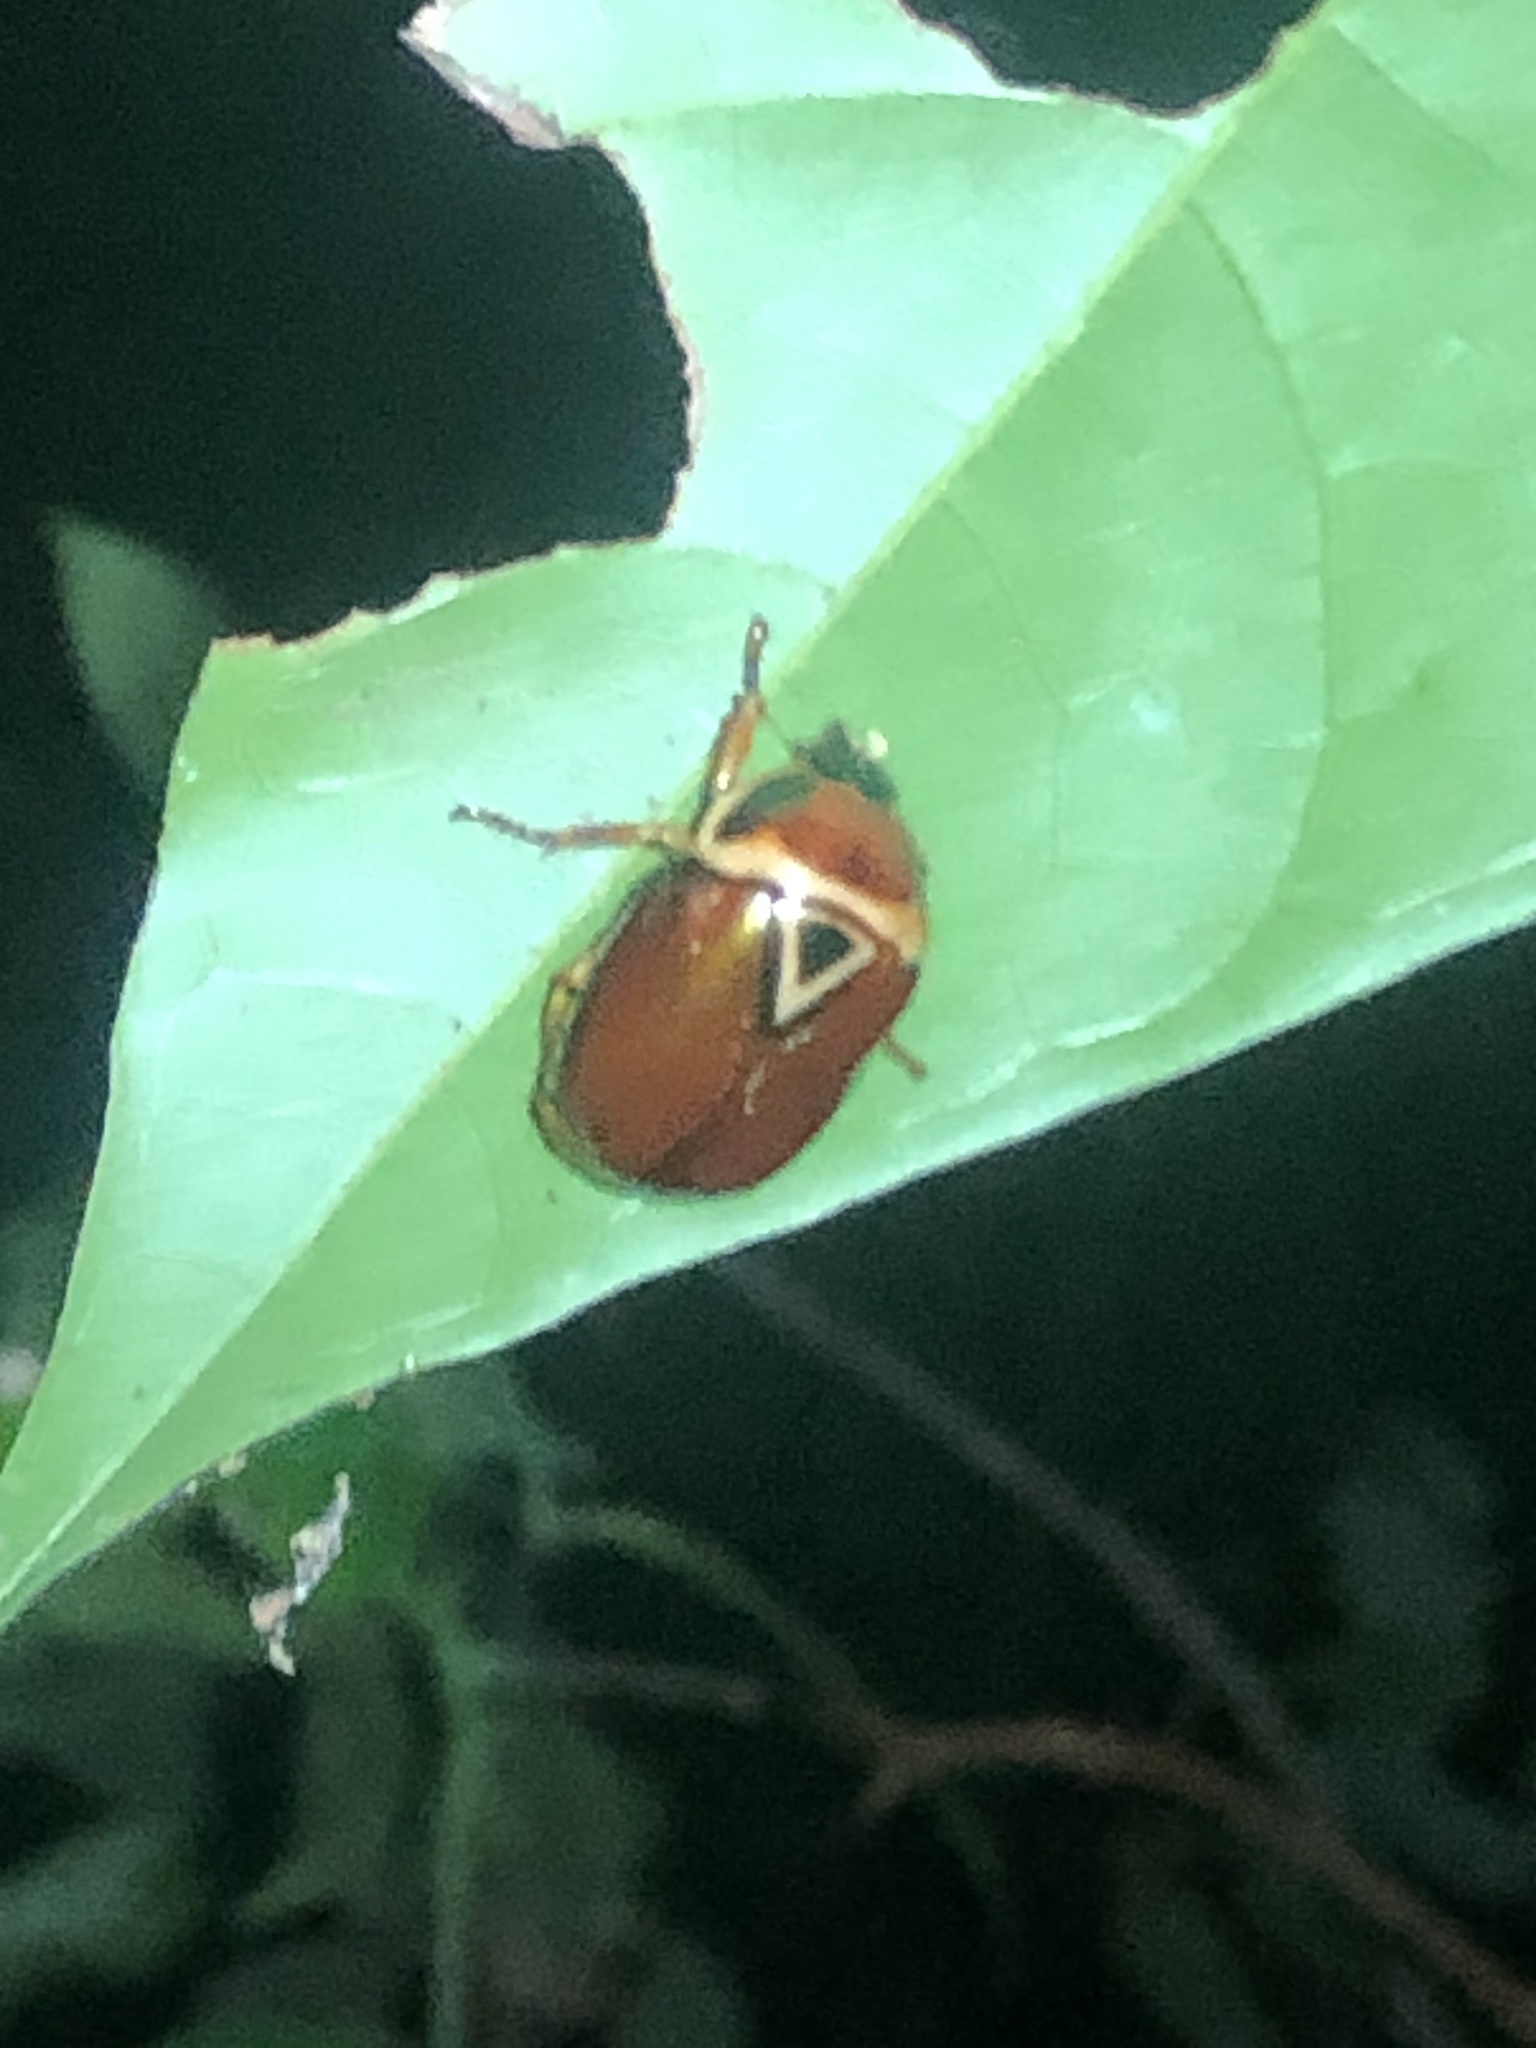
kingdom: Animalia
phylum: Arthropoda
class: Insecta
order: Coleoptera
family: Scarabaeidae
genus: Lagochile
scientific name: Lagochile trigona
